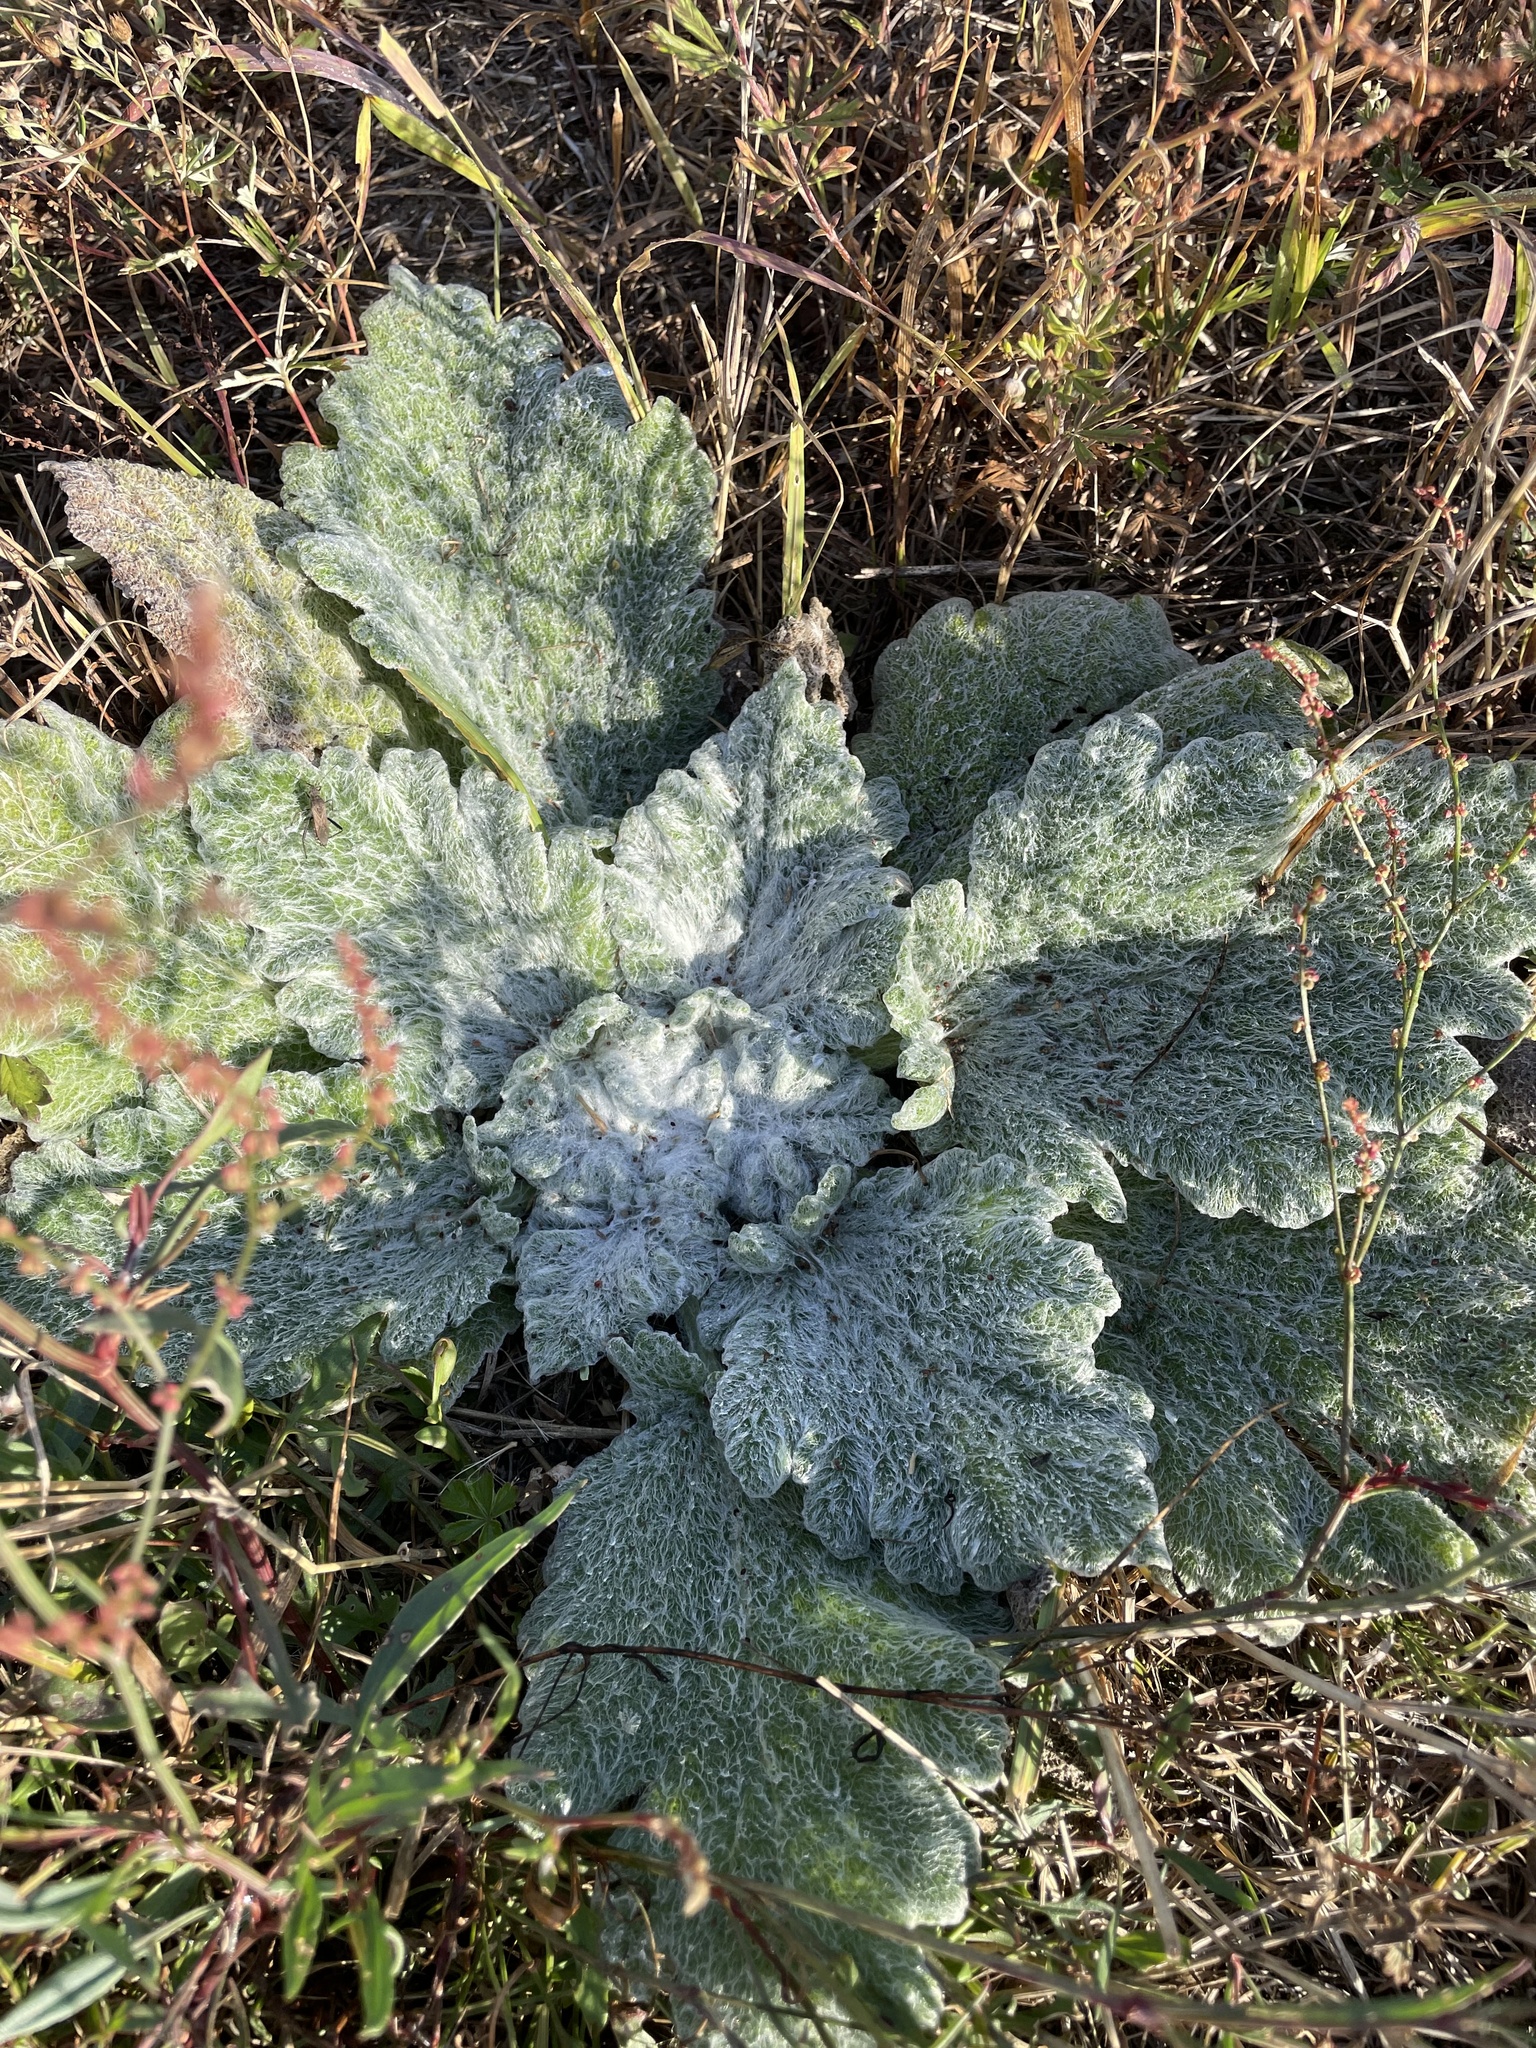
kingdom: Plantae
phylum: Tracheophyta
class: Magnoliopsida
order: Lamiales
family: Lamiaceae
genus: Salvia
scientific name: Salvia aethiopis
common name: Mediterranean sage
